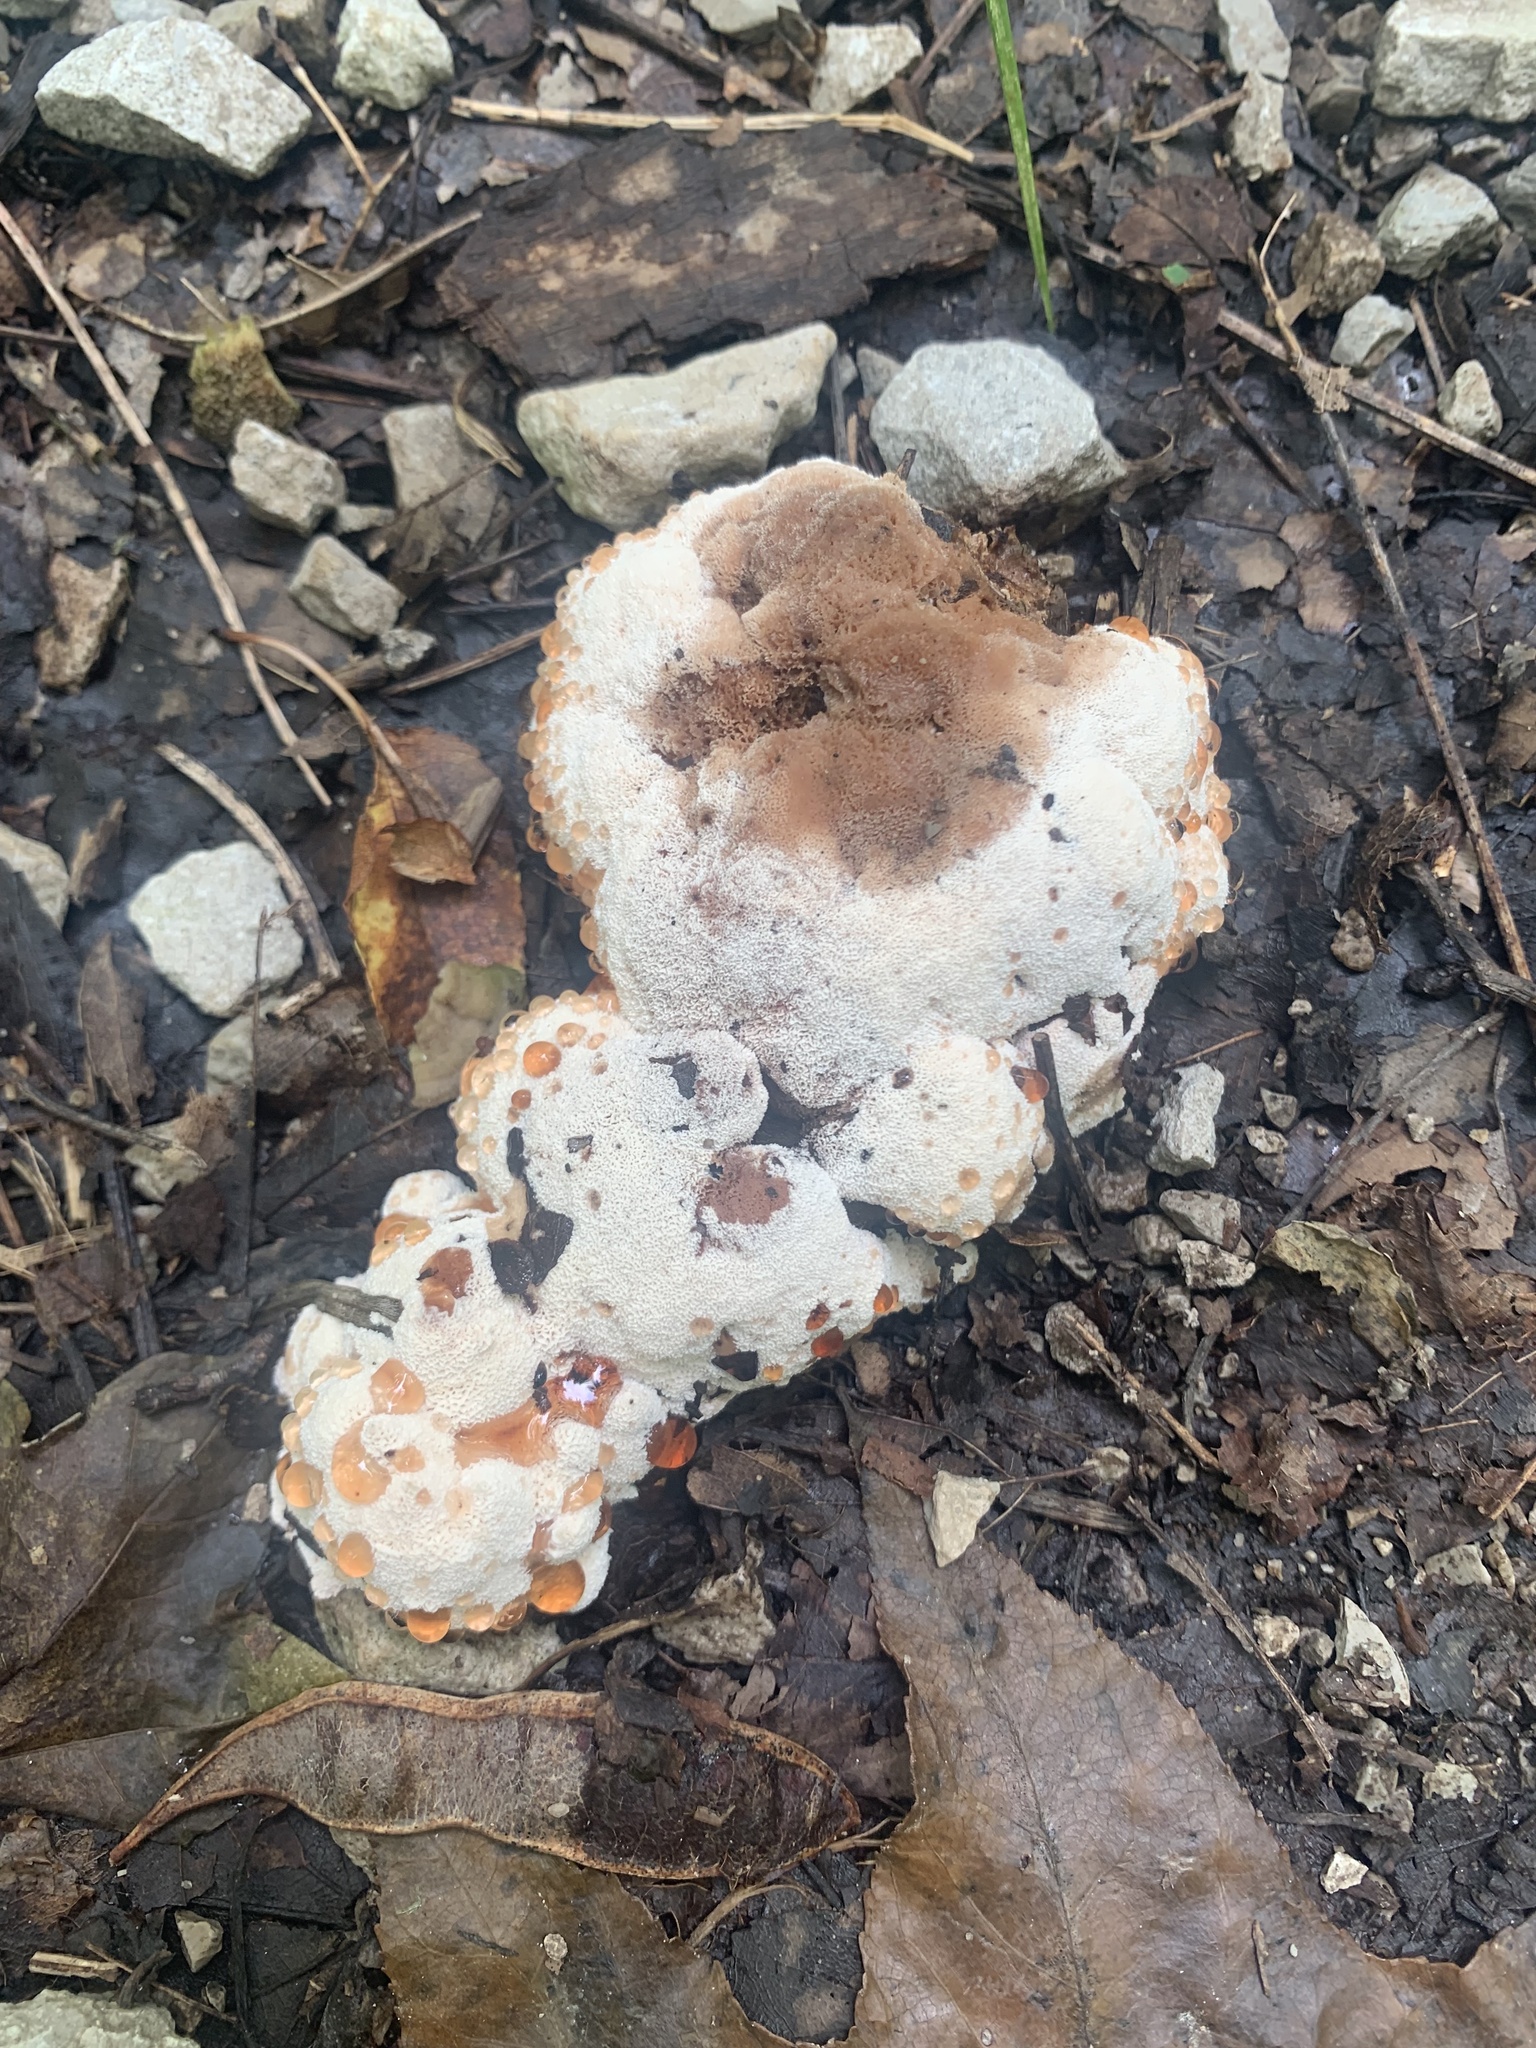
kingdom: Fungi
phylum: Basidiomycota
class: Agaricomycetes
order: Polyporales
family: Podoscyphaceae
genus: Abortiporus
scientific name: Abortiporus biennis
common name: Blushing rosette
